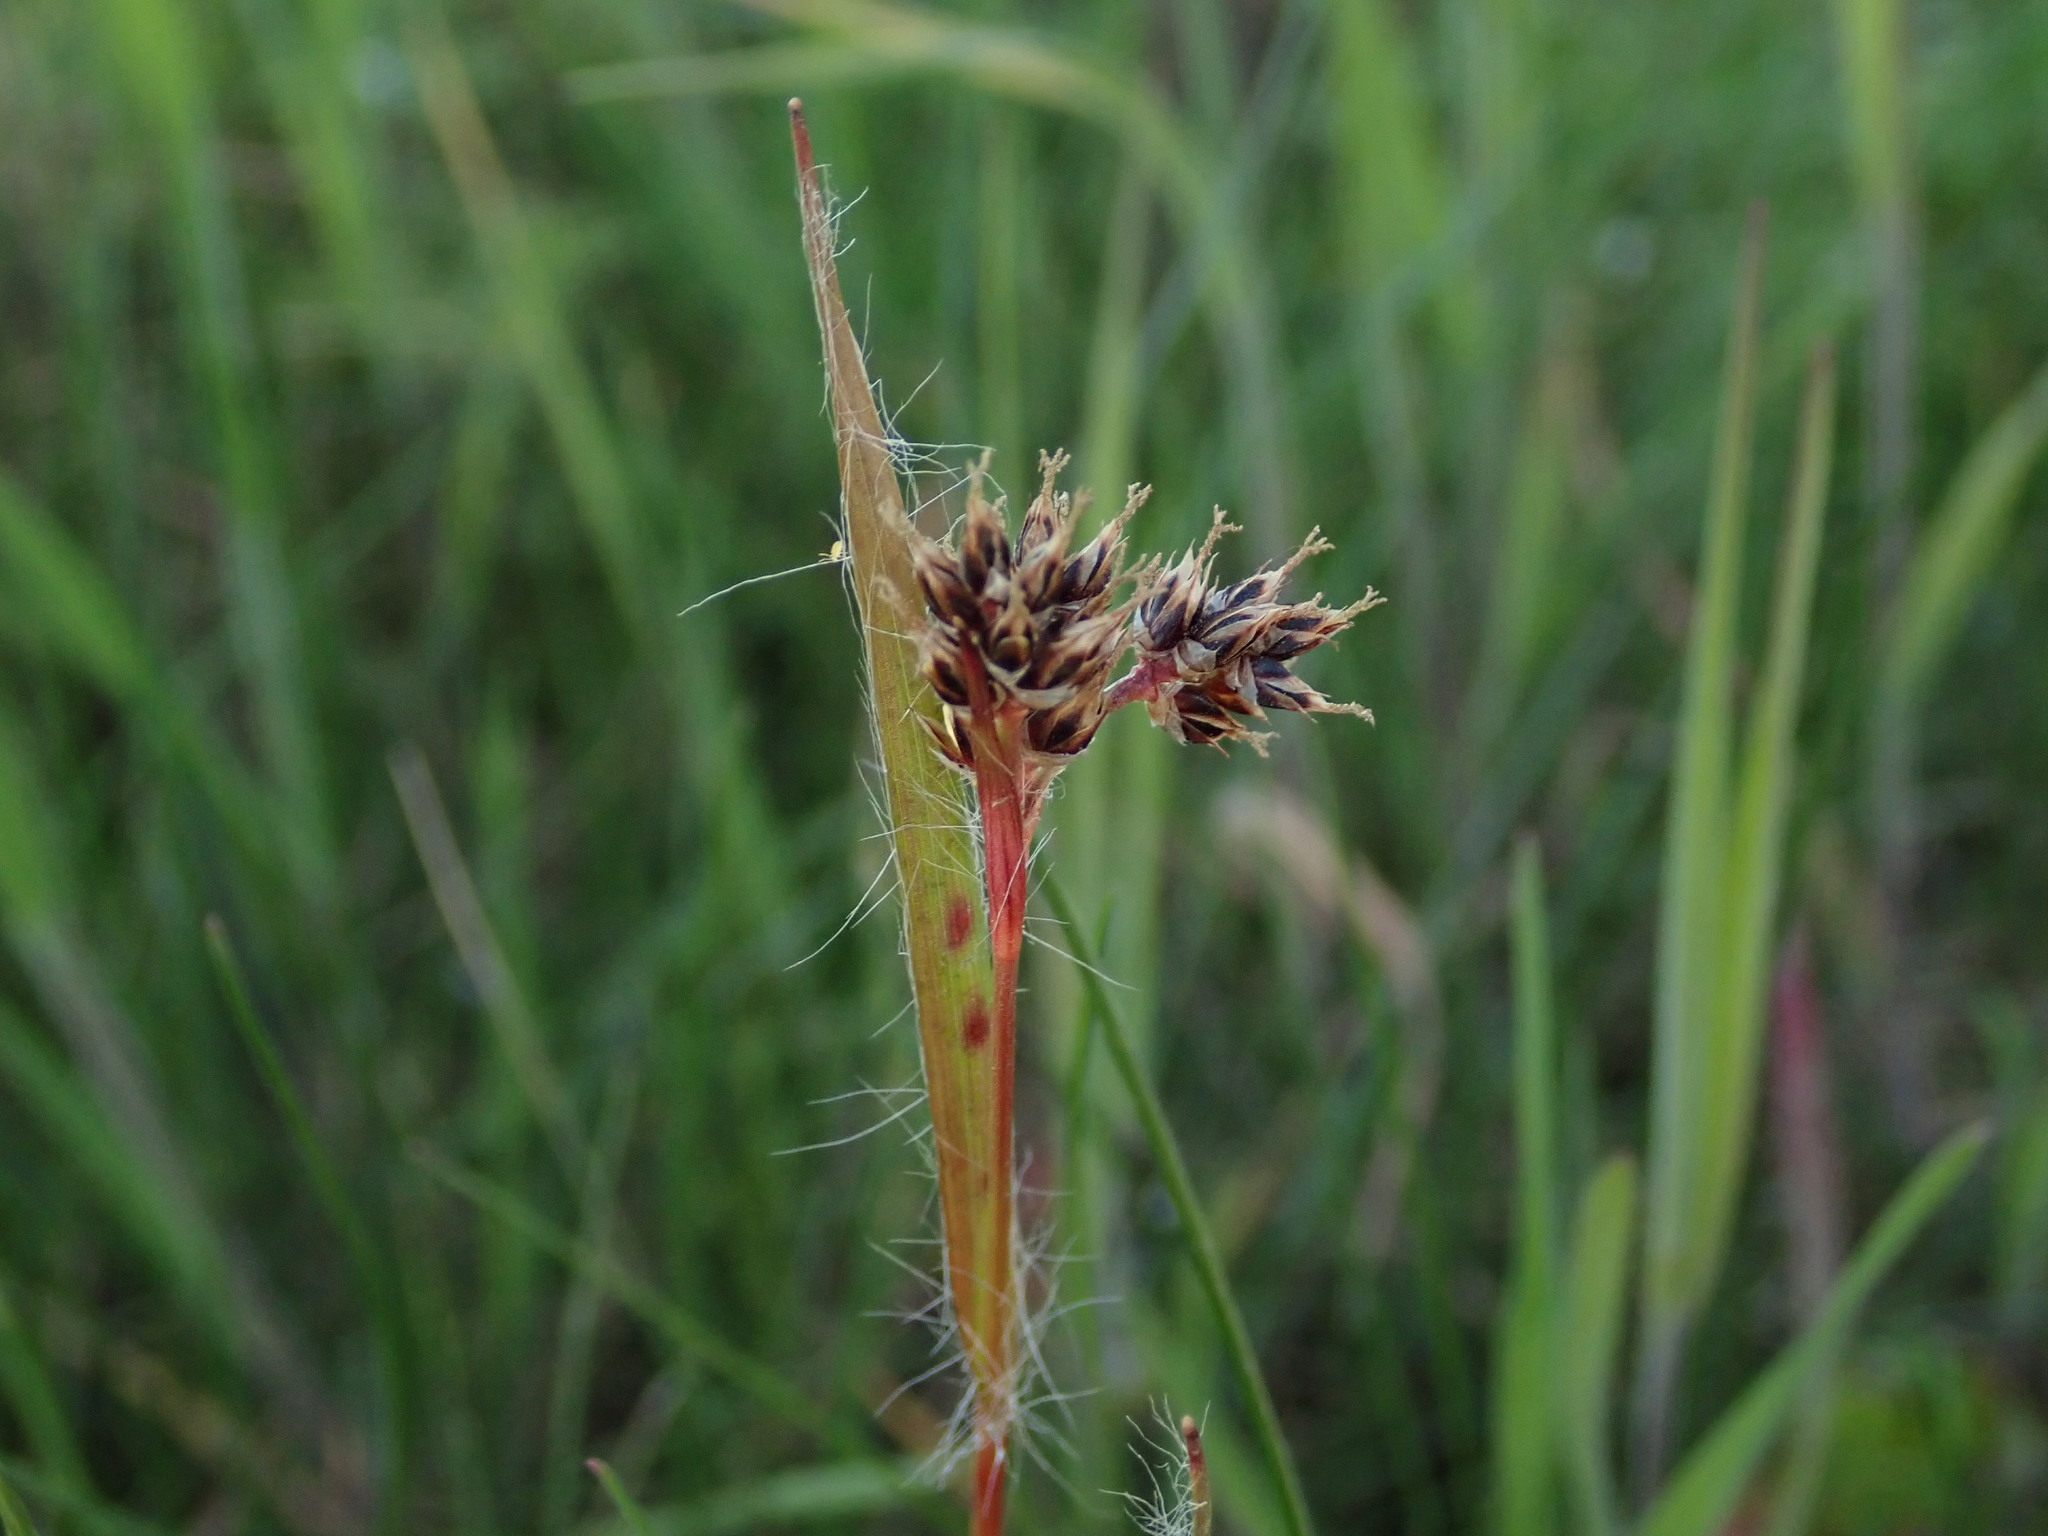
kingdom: Plantae
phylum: Tracheophyta
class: Liliopsida
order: Poales
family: Juncaceae
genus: Luzula
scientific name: Luzula campestris
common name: Field wood-rush
